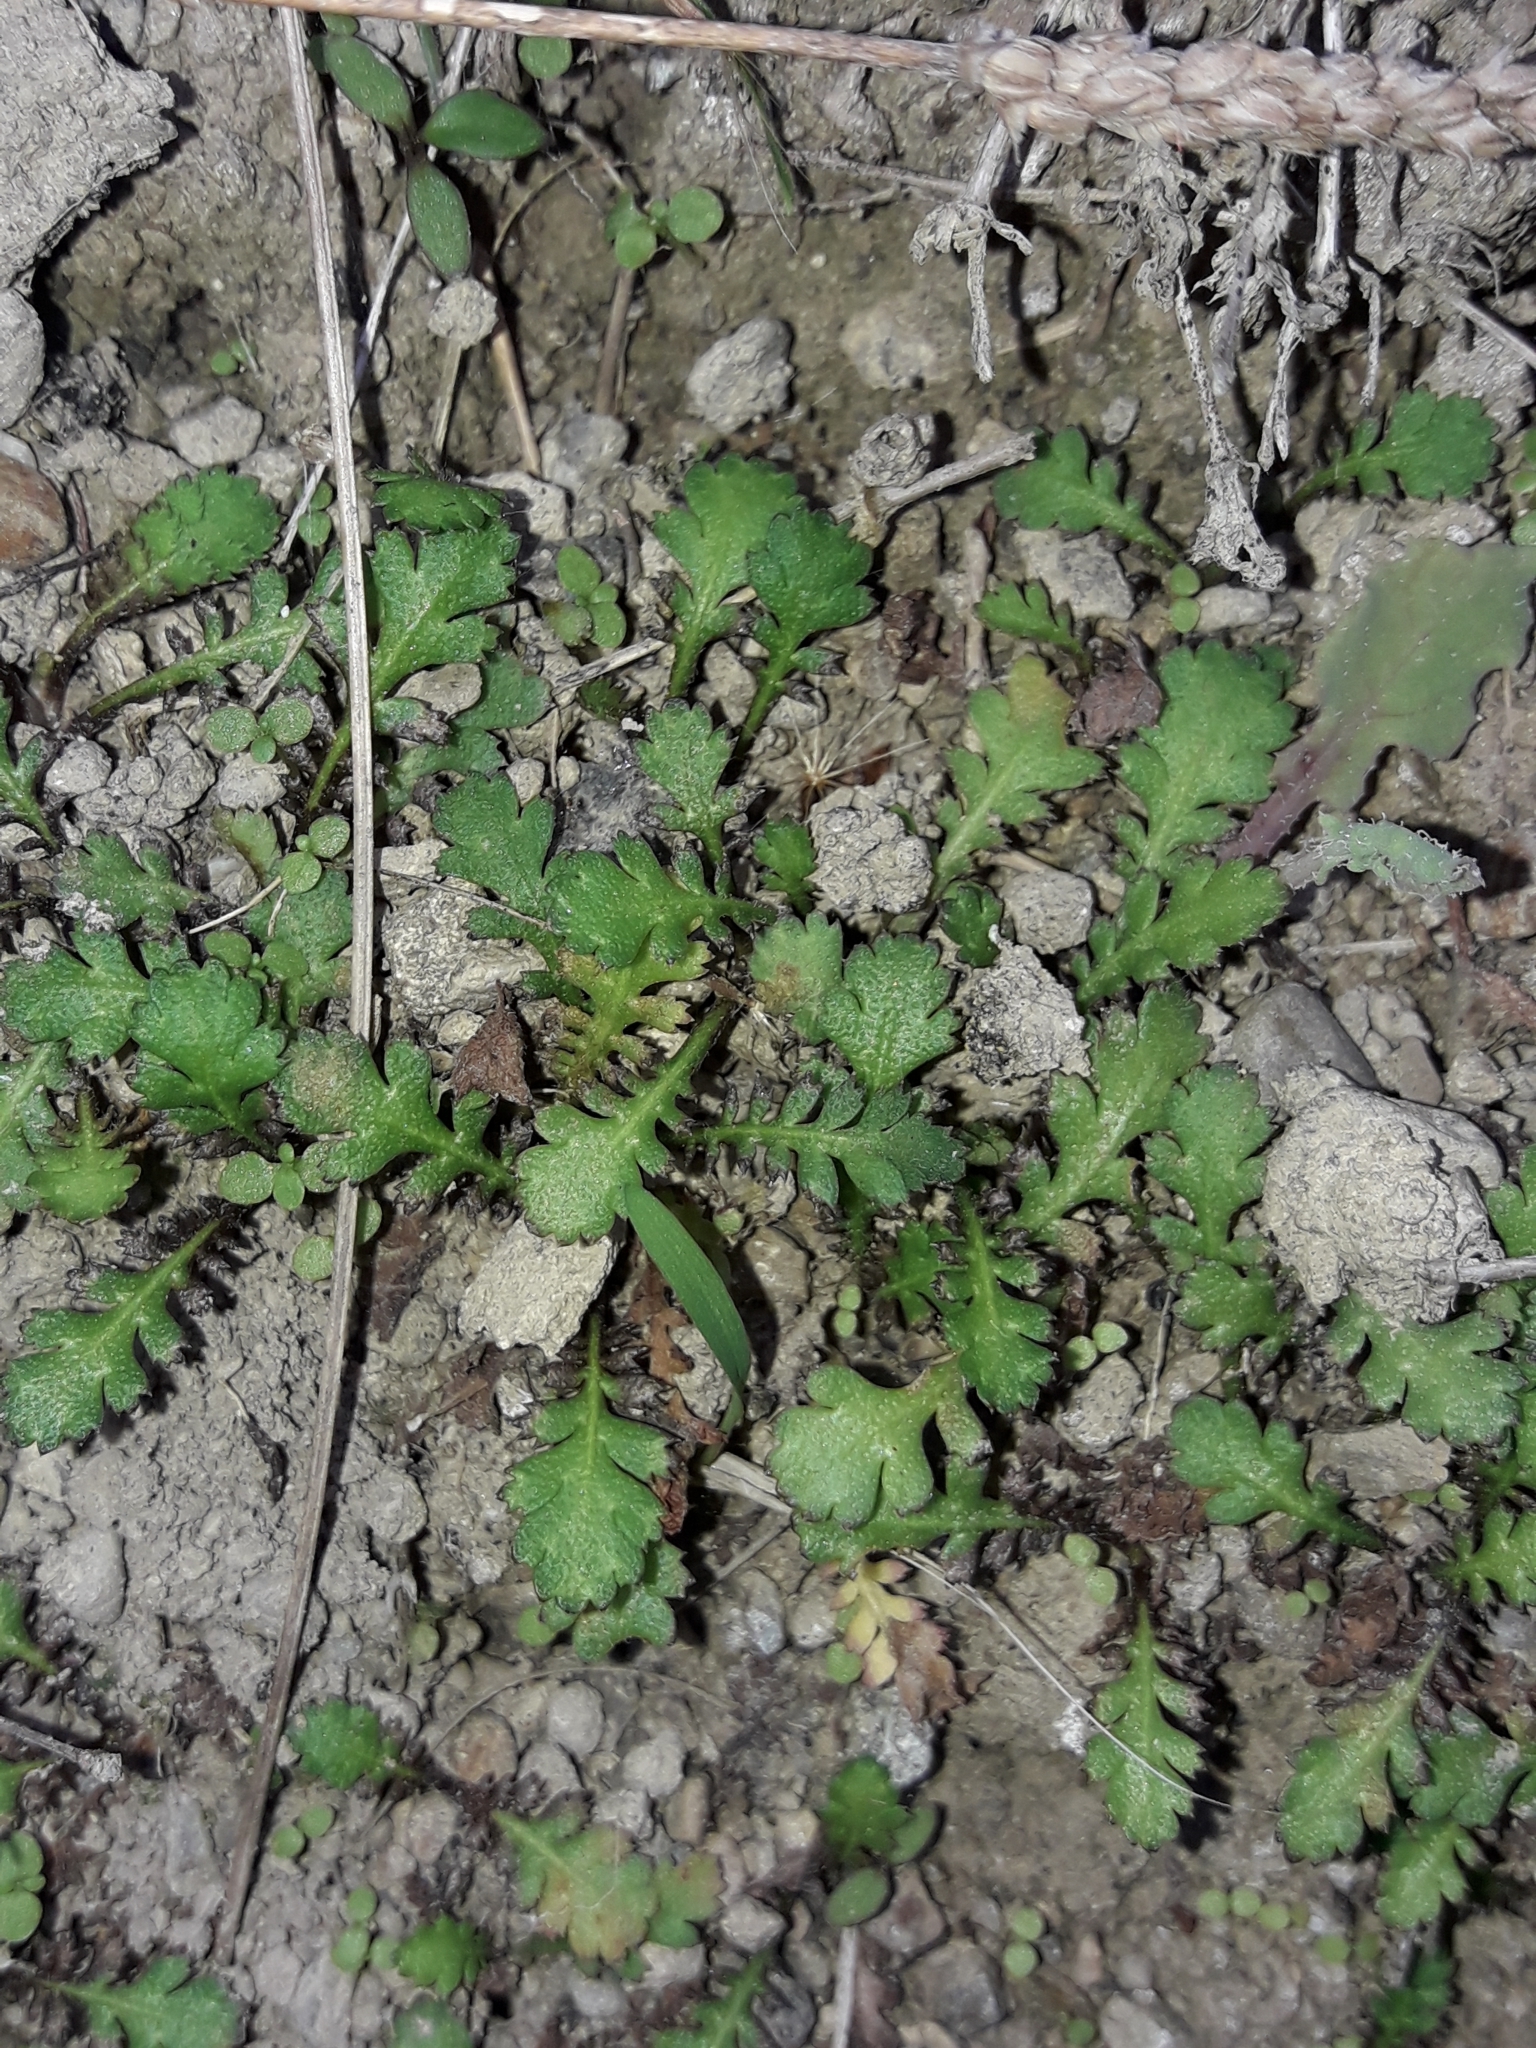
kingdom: Plantae
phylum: Tracheophyta
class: Magnoliopsida
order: Asterales
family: Asteraceae
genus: Leptinella
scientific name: Leptinella squalida
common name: New zealand brass-buttons
